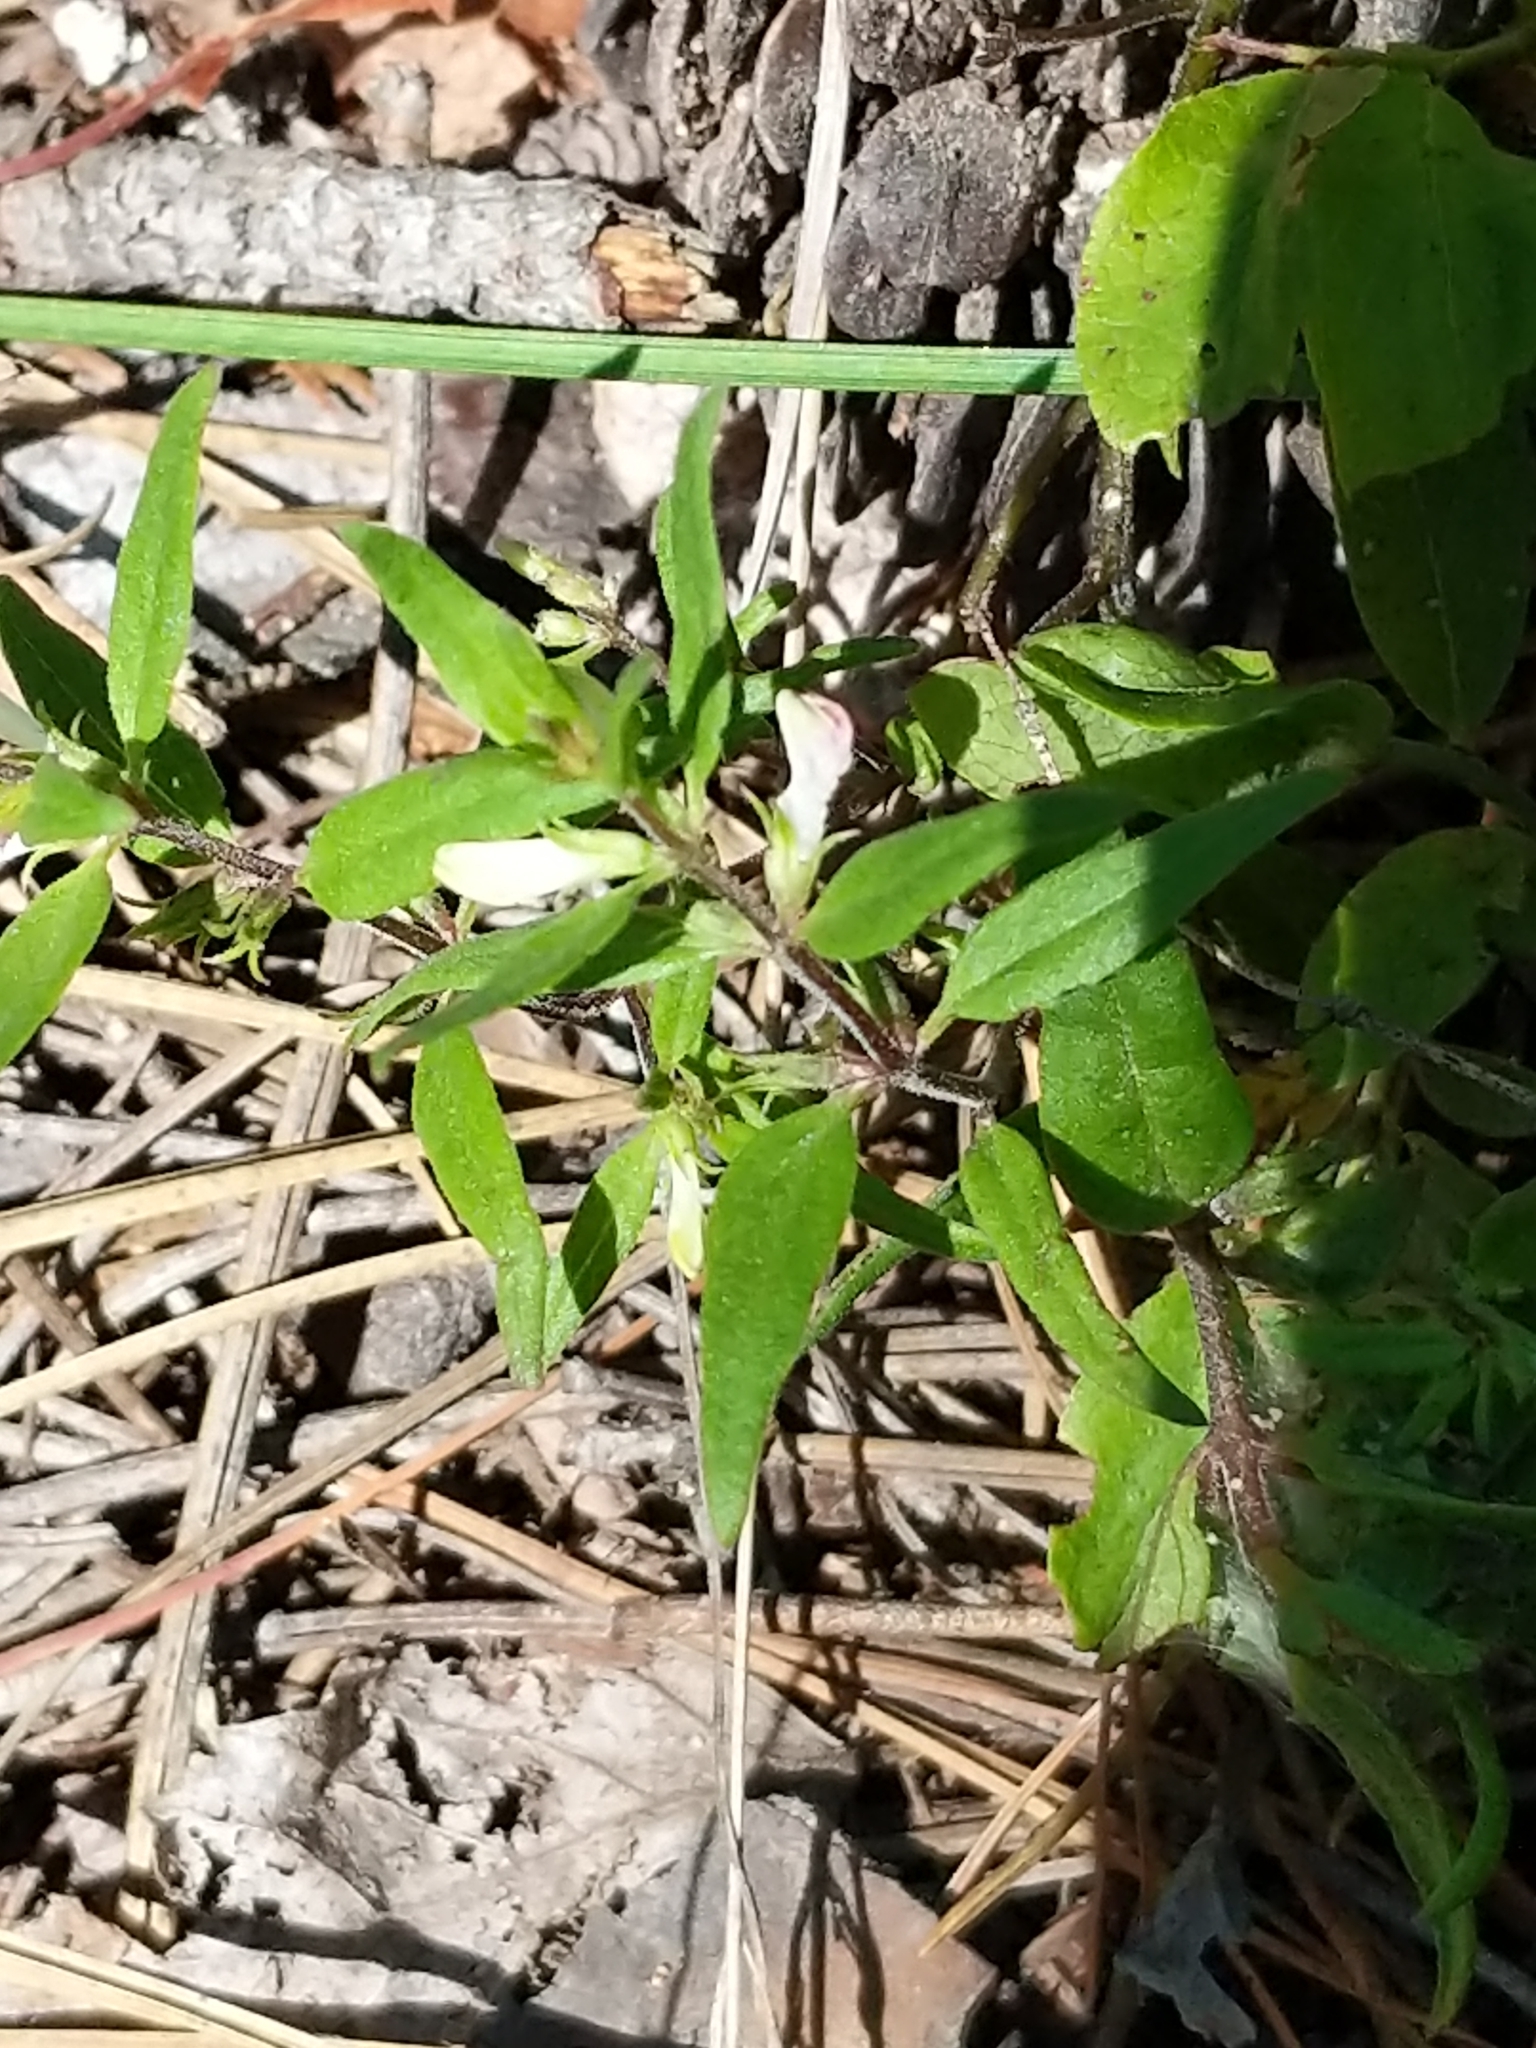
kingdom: Plantae
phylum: Tracheophyta
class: Magnoliopsida
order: Lamiales
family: Orobanchaceae
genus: Melampyrum
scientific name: Melampyrum lineare
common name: American cow-wheat
